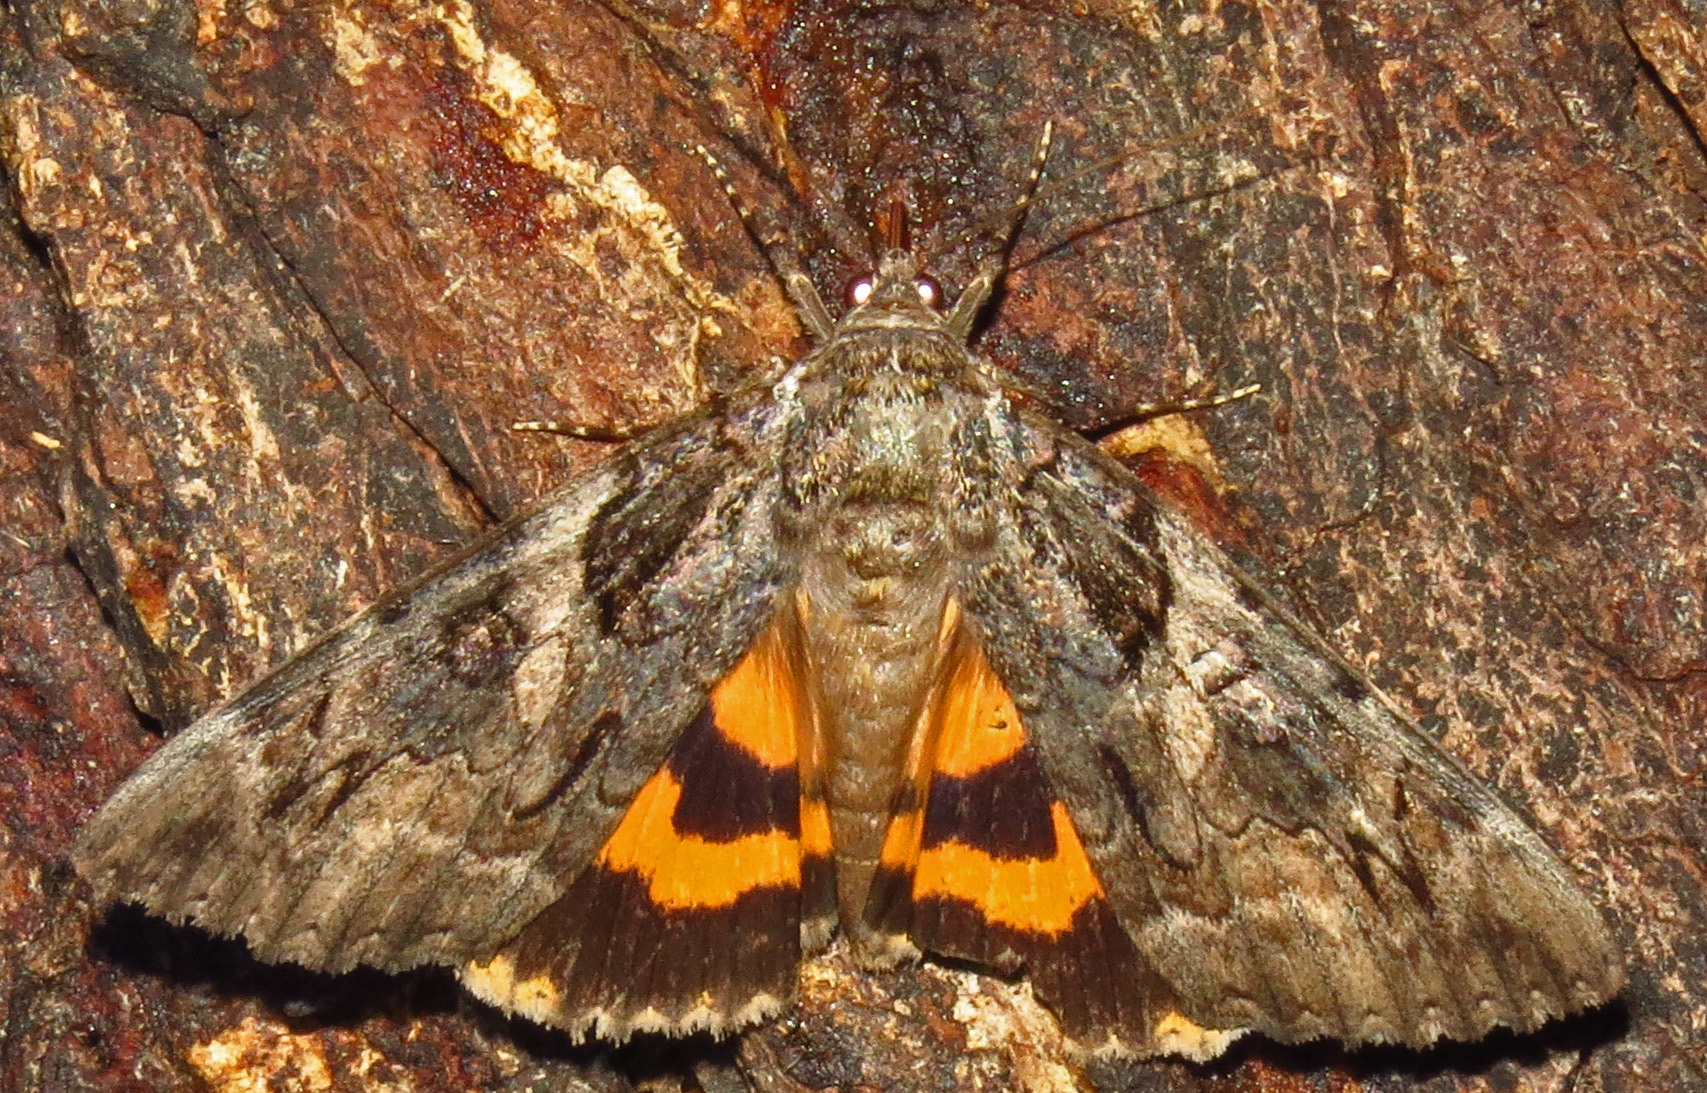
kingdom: Animalia
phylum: Arthropoda
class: Insecta
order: Lepidoptera
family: Erebidae
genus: Catocala
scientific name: Catocala piatrix
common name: The penitent underwing
